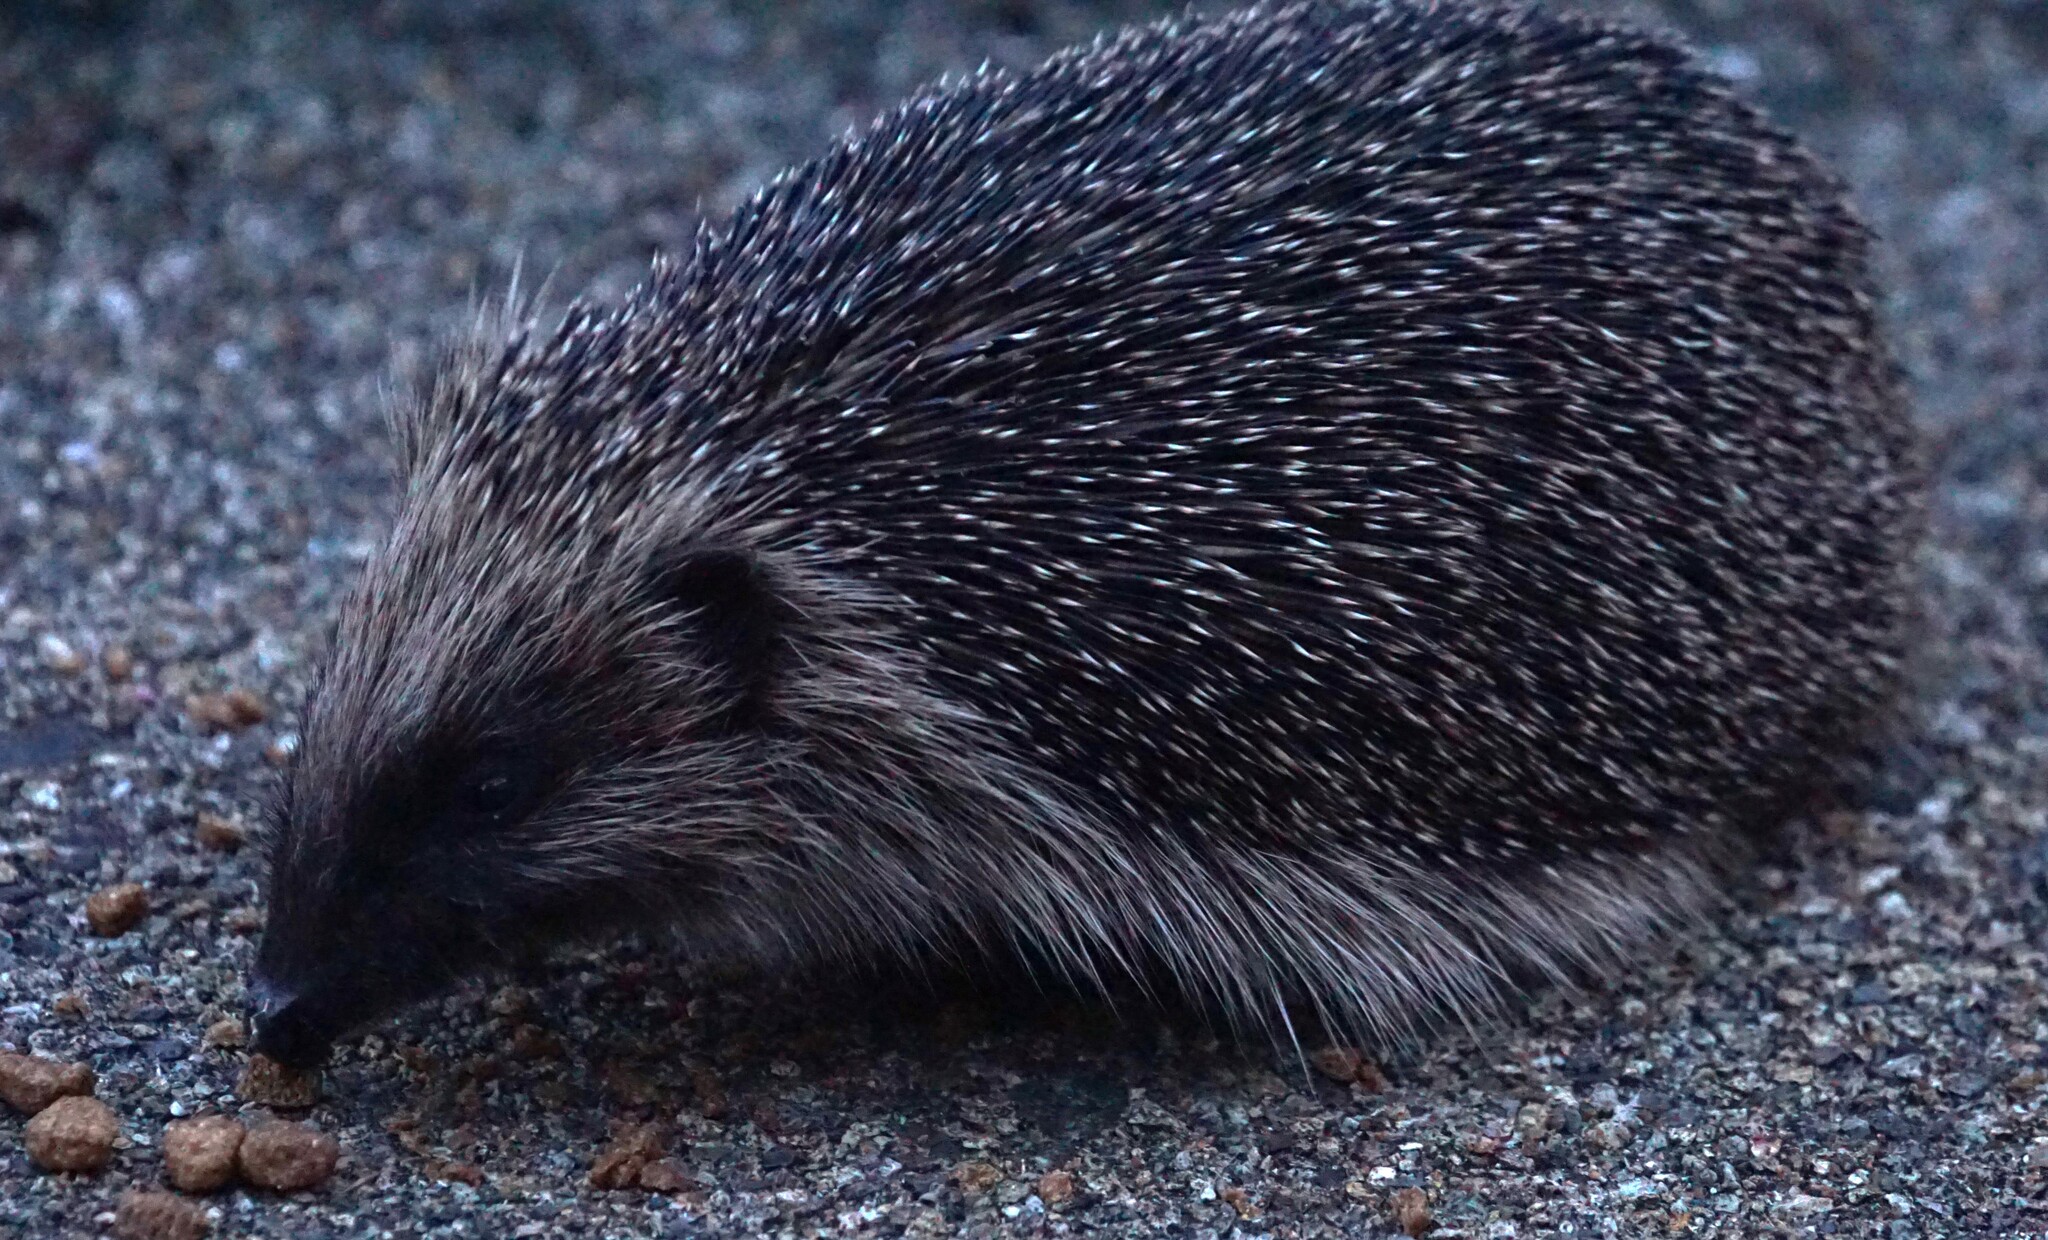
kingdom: Animalia
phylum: Chordata
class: Mammalia
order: Erinaceomorpha
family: Erinaceidae
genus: Erinaceus
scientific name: Erinaceus europaeus
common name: West european hedgehog
